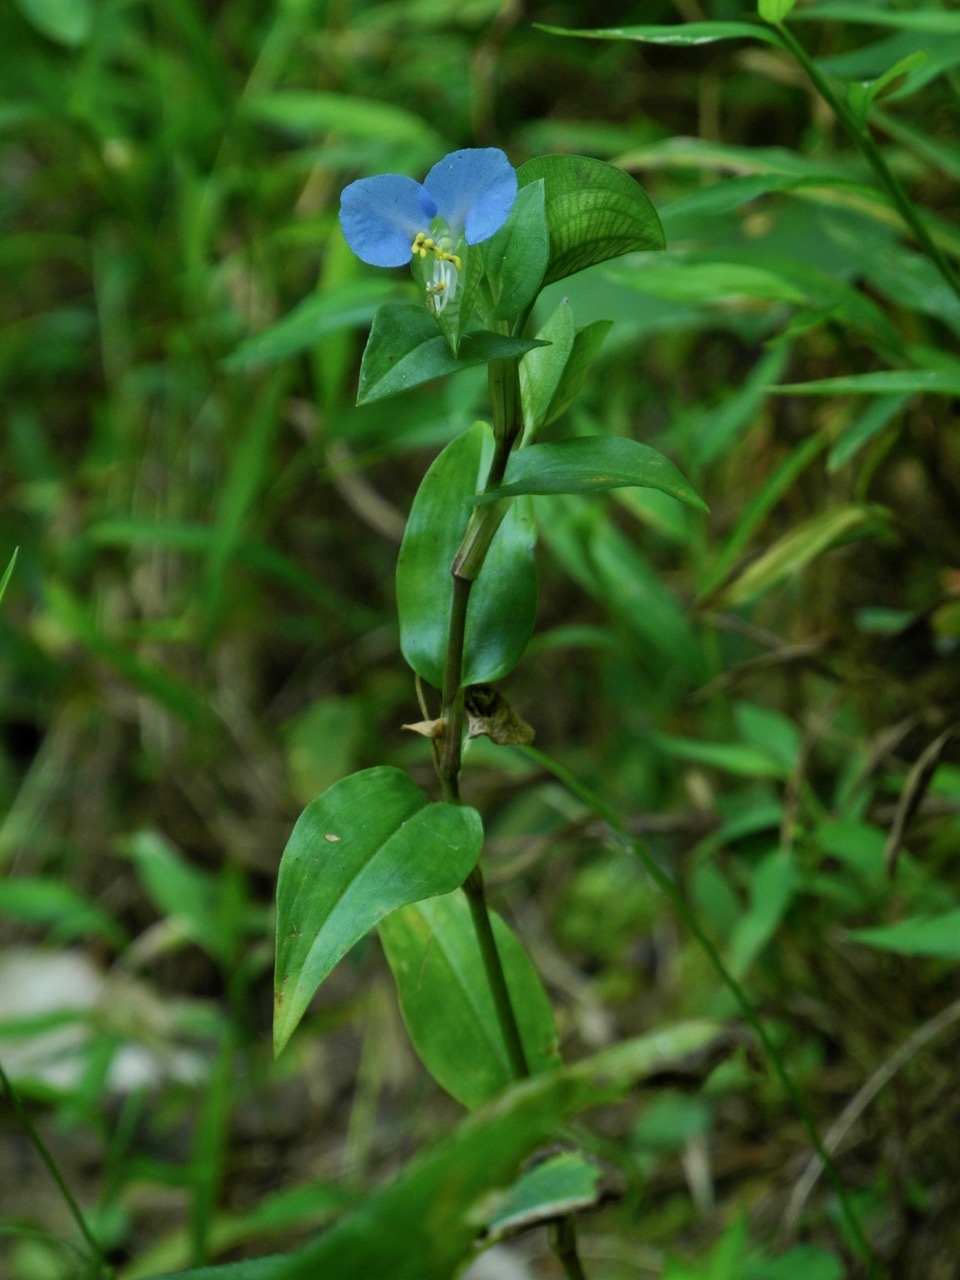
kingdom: Plantae
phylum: Tracheophyta
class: Liliopsida
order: Commelinales
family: Commelinaceae
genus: Commelina
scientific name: Commelina communis
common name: Asiatic dayflower
